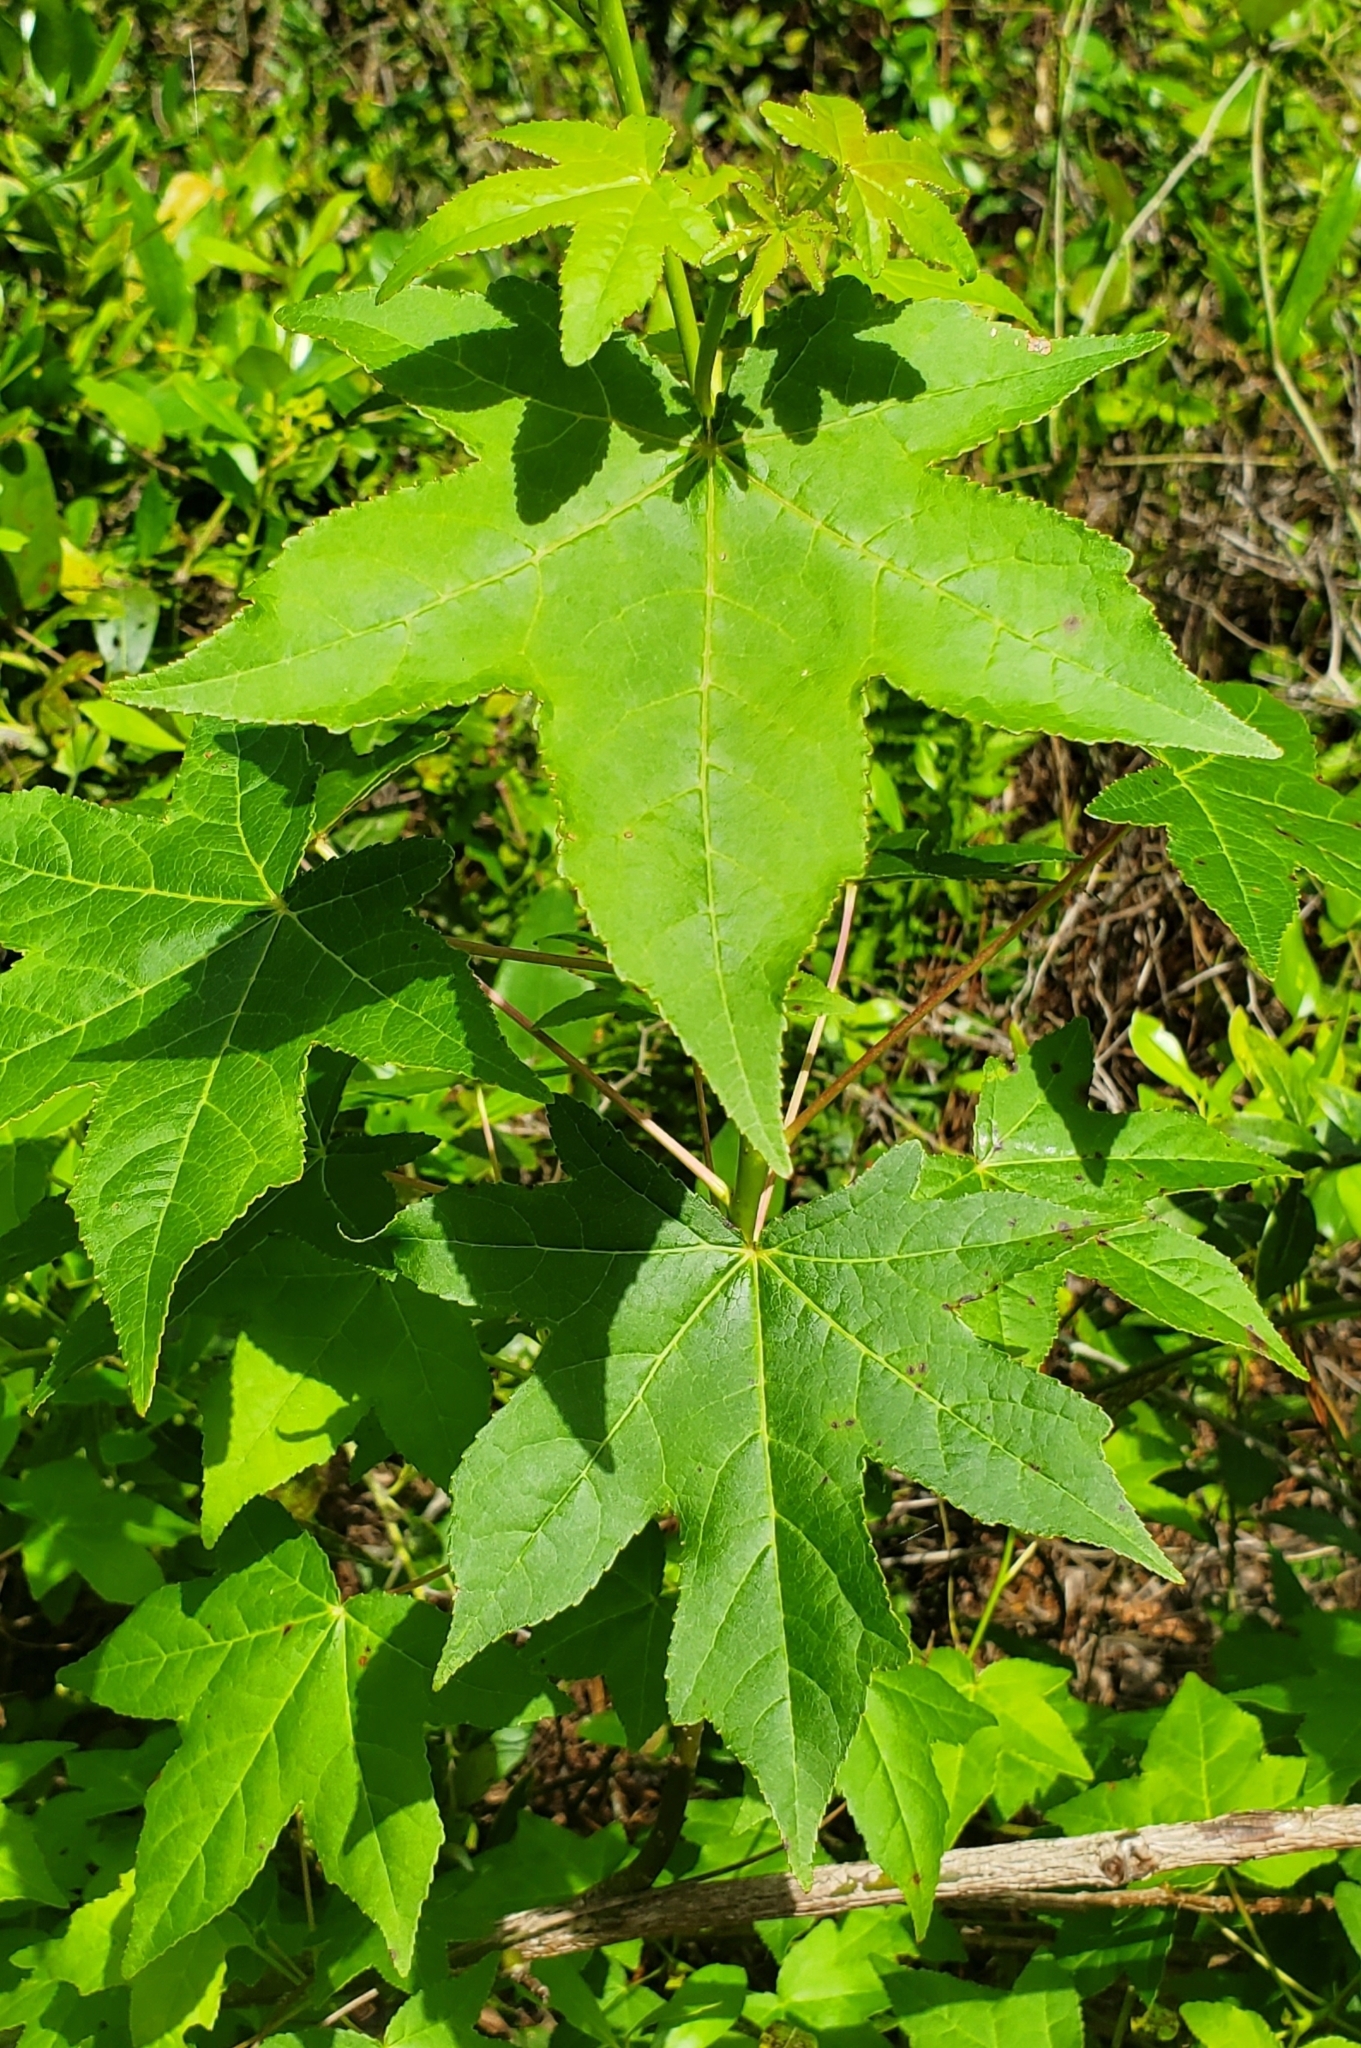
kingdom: Plantae
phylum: Tracheophyta
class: Magnoliopsida
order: Saxifragales
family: Altingiaceae
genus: Liquidambar
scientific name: Liquidambar styraciflua
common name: Sweet gum
